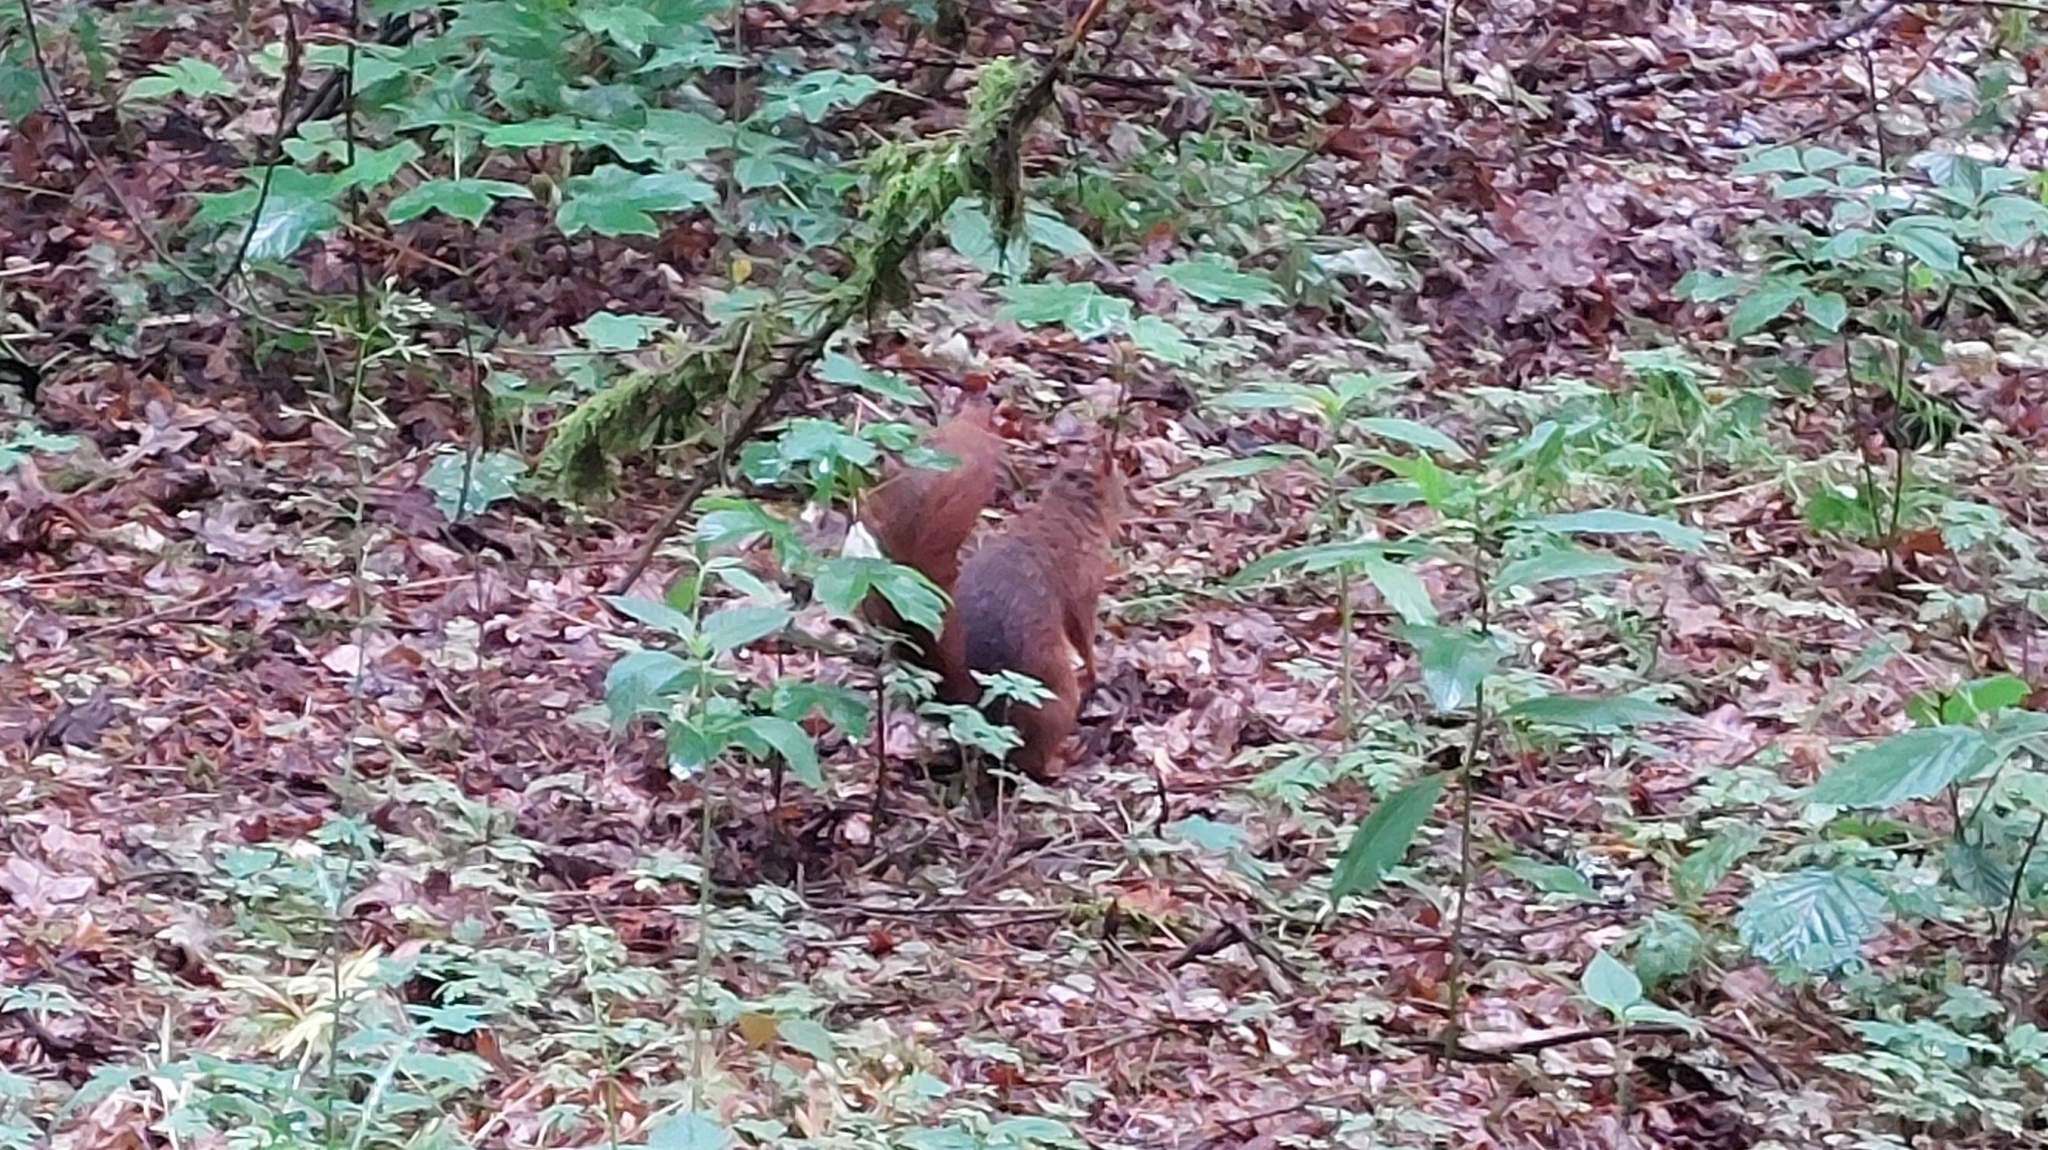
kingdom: Animalia
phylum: Chordata
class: Mammalia
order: Rodentia
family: Sciuridae
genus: Sciurus
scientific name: Sciurus vulgaris
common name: Eurasian red squirrel
